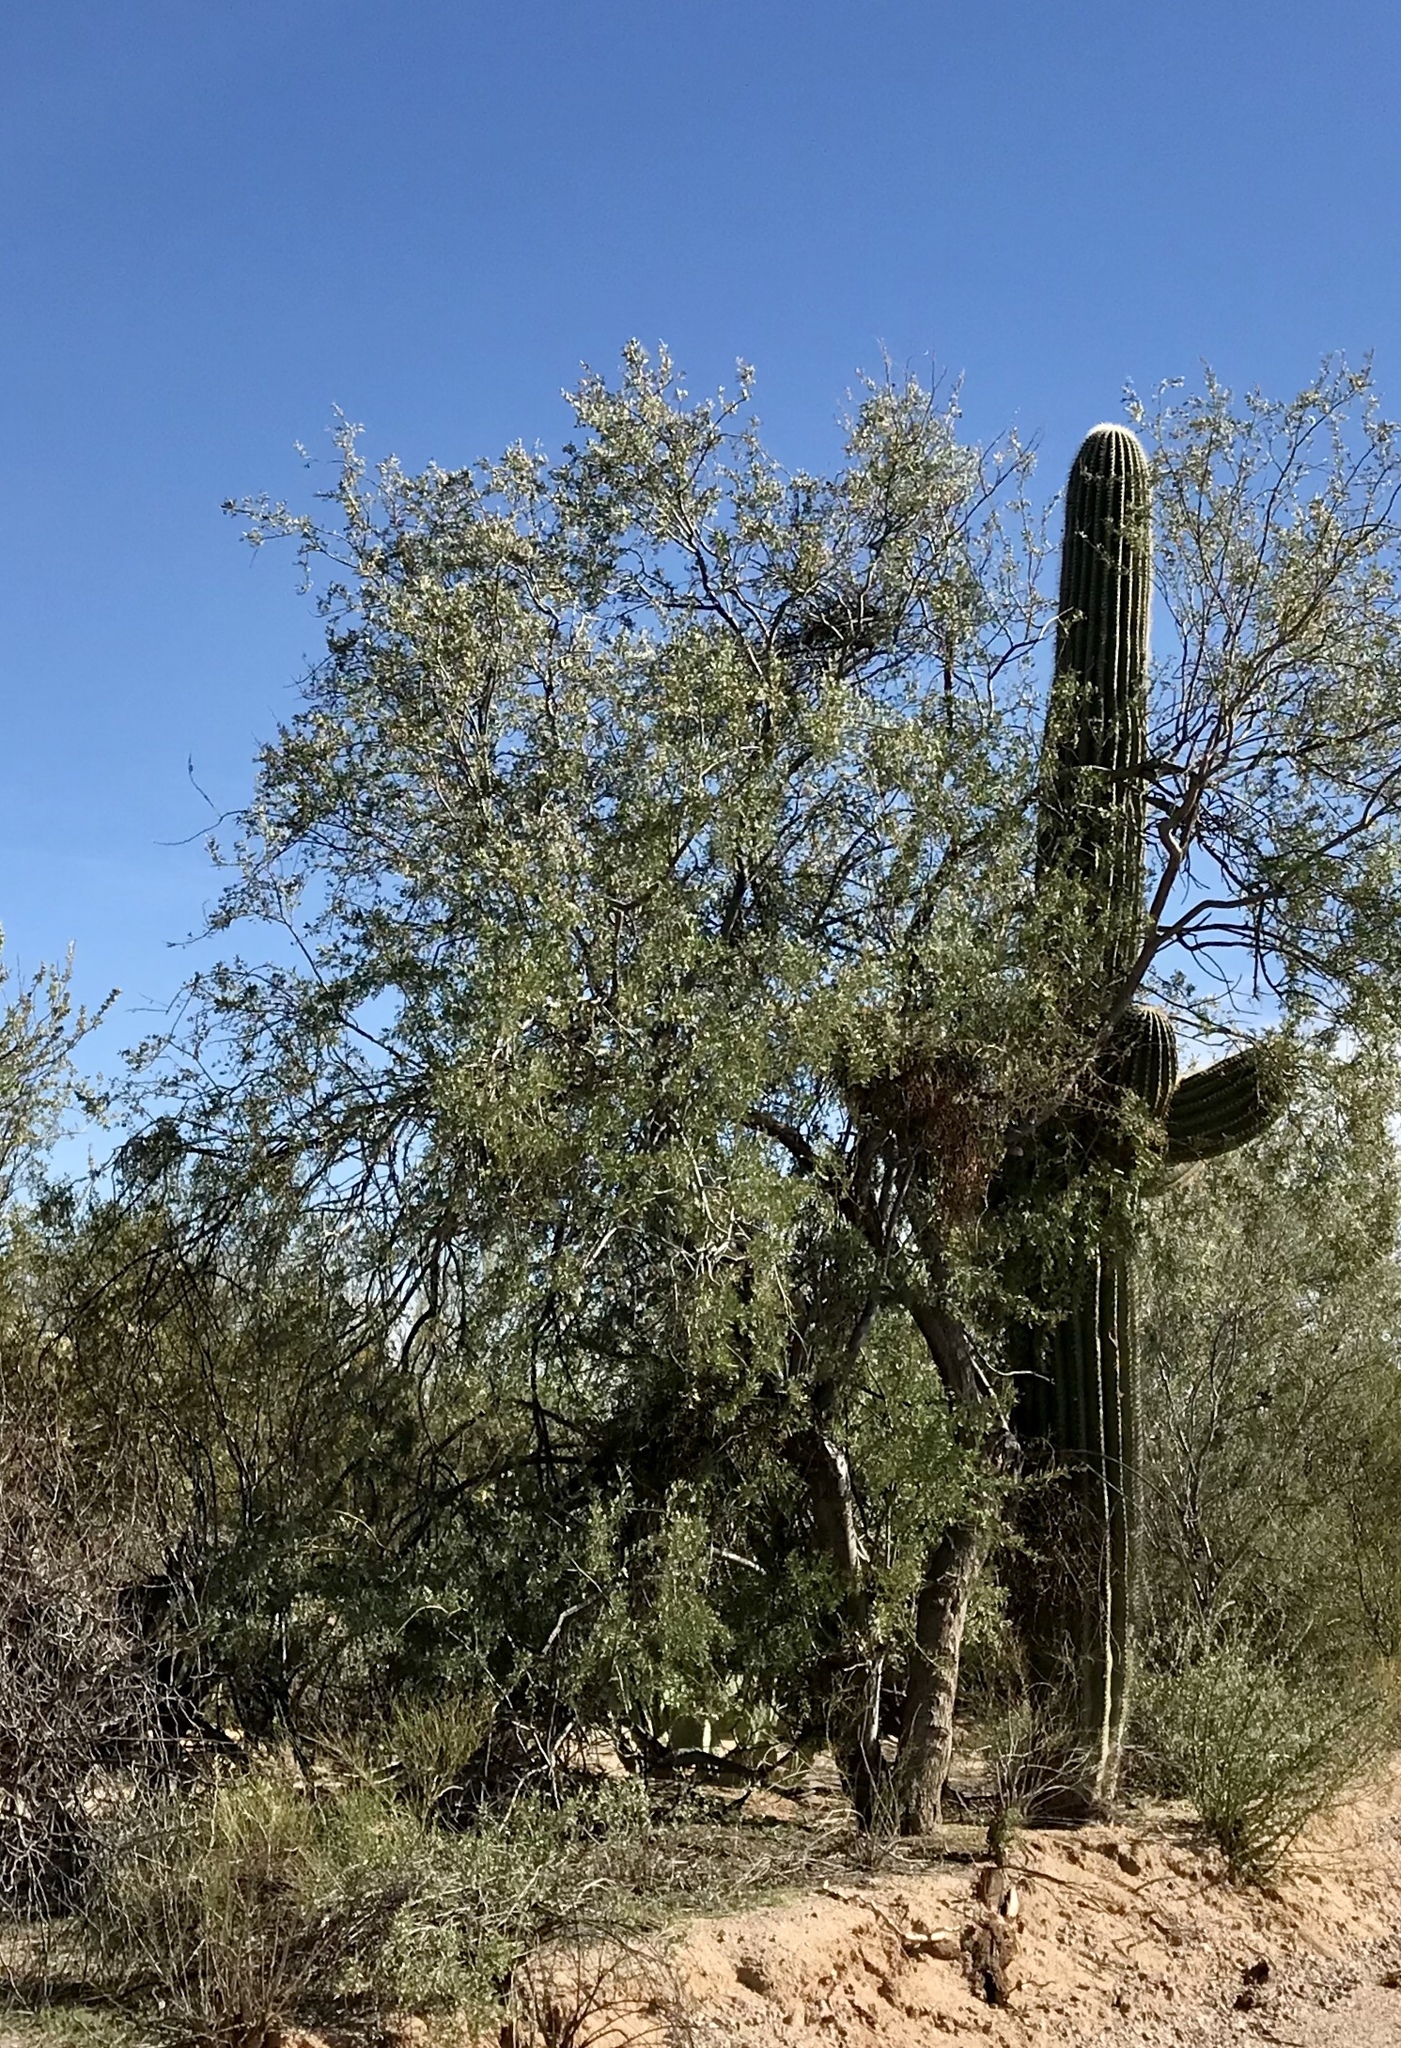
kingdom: Plantae
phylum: Tracheophyta
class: Magnoliopsida
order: Fabales
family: Fabaceae
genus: Olneya
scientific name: Olneya tesota
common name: Desert ironwood
